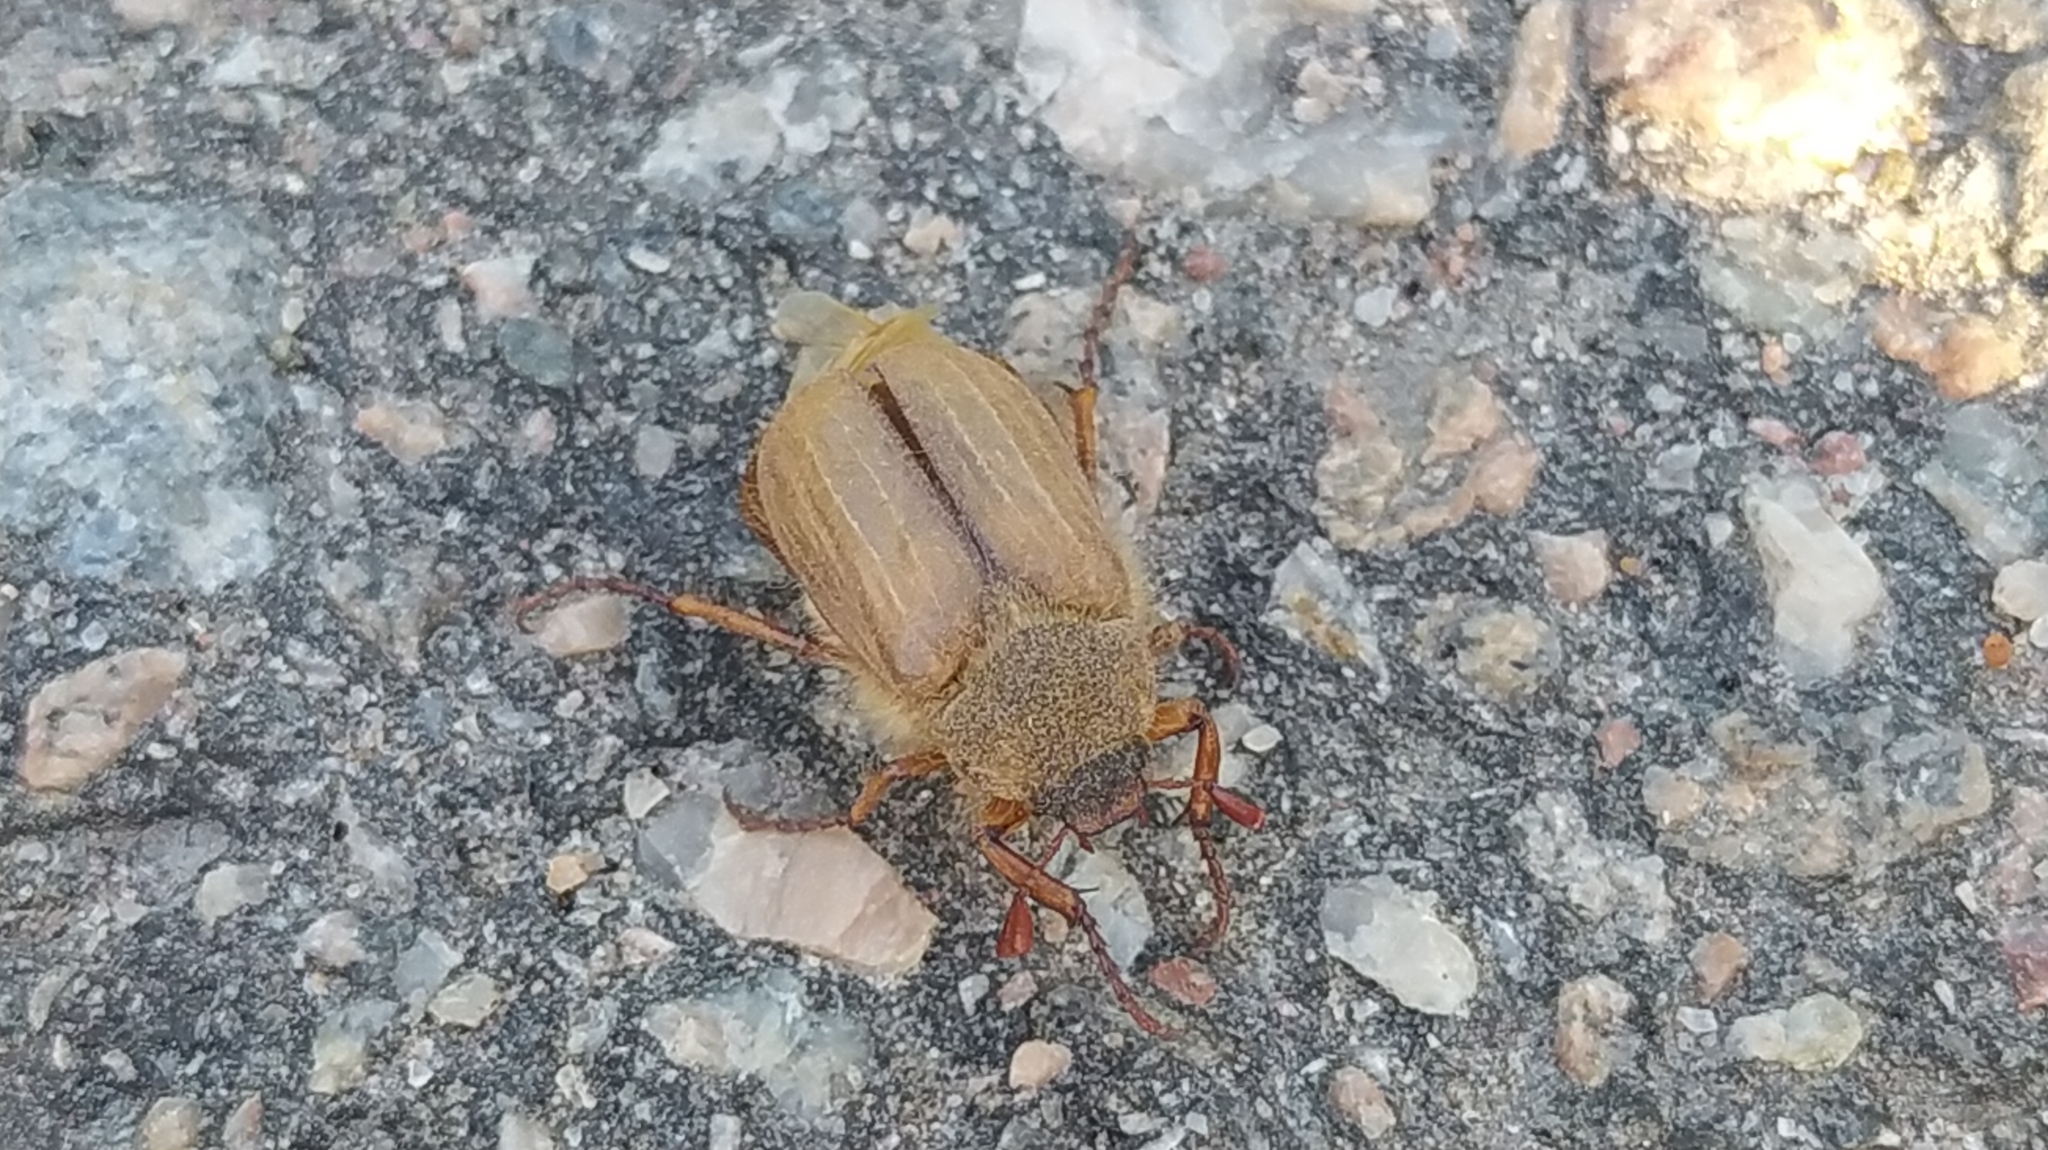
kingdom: Animalia
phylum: Arthropoda
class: Insecta
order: Coleoptera
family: Scarabaeidae
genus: Amphimallon
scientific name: Amphimallon solstitiale
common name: Summer chafer
